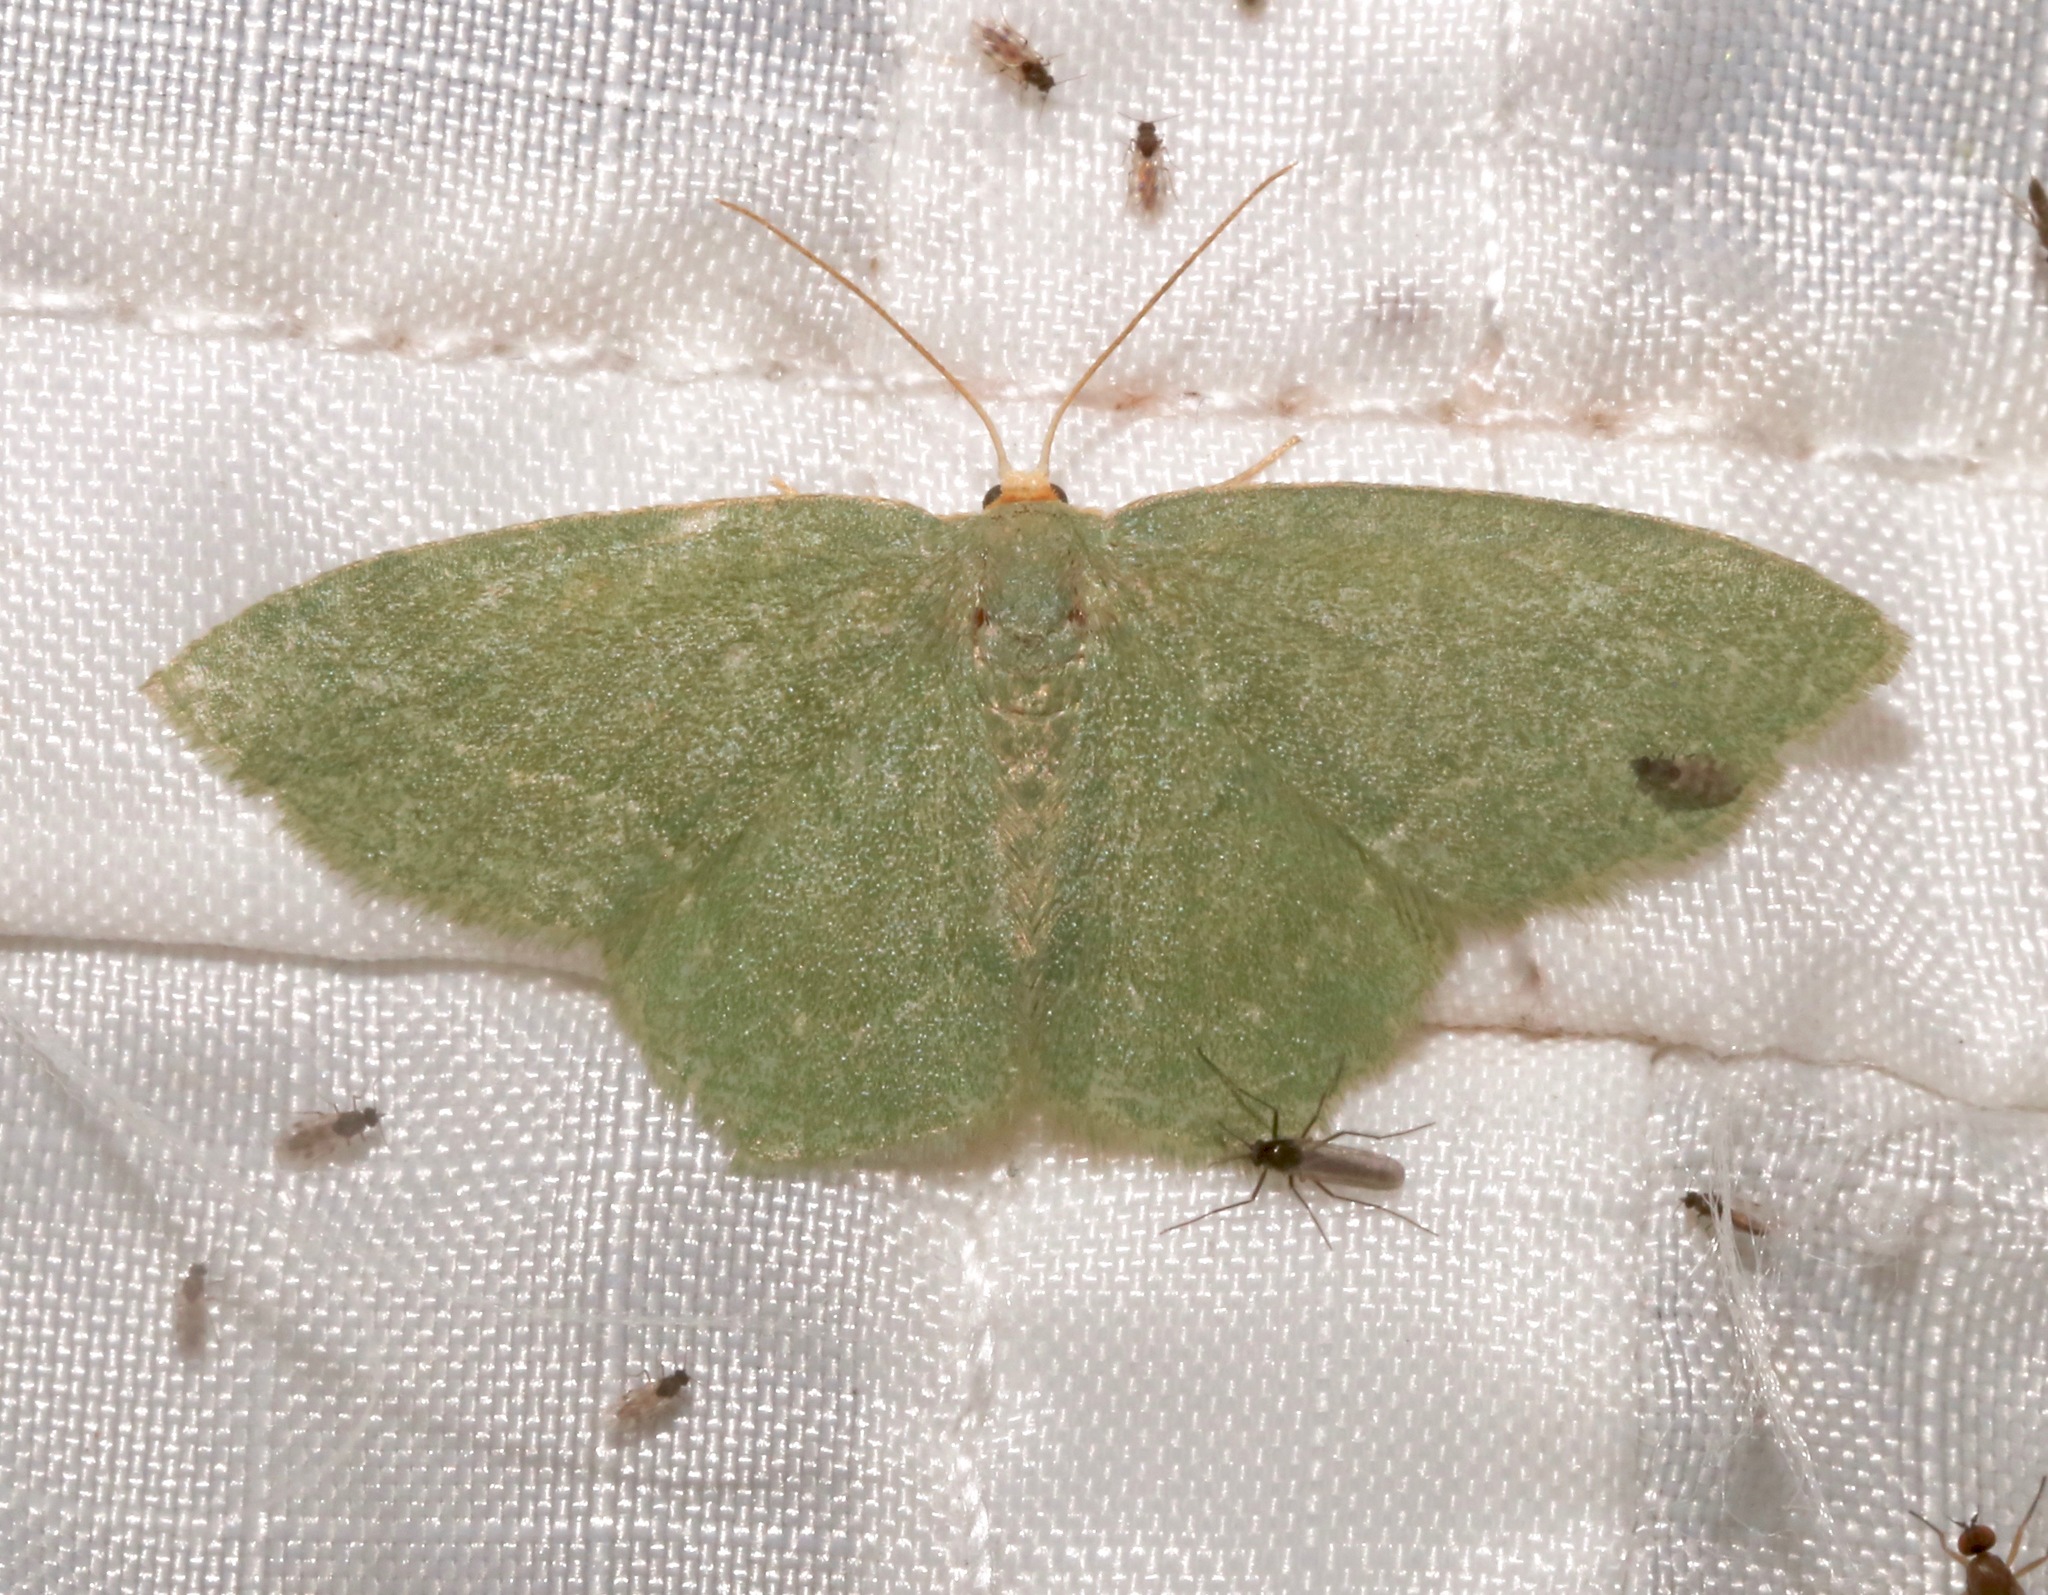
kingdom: Animalia
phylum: Arthropoda
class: Insecta
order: Lepidoptera
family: Geometridae
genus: Thalera
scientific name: Thalera pistasciaria
